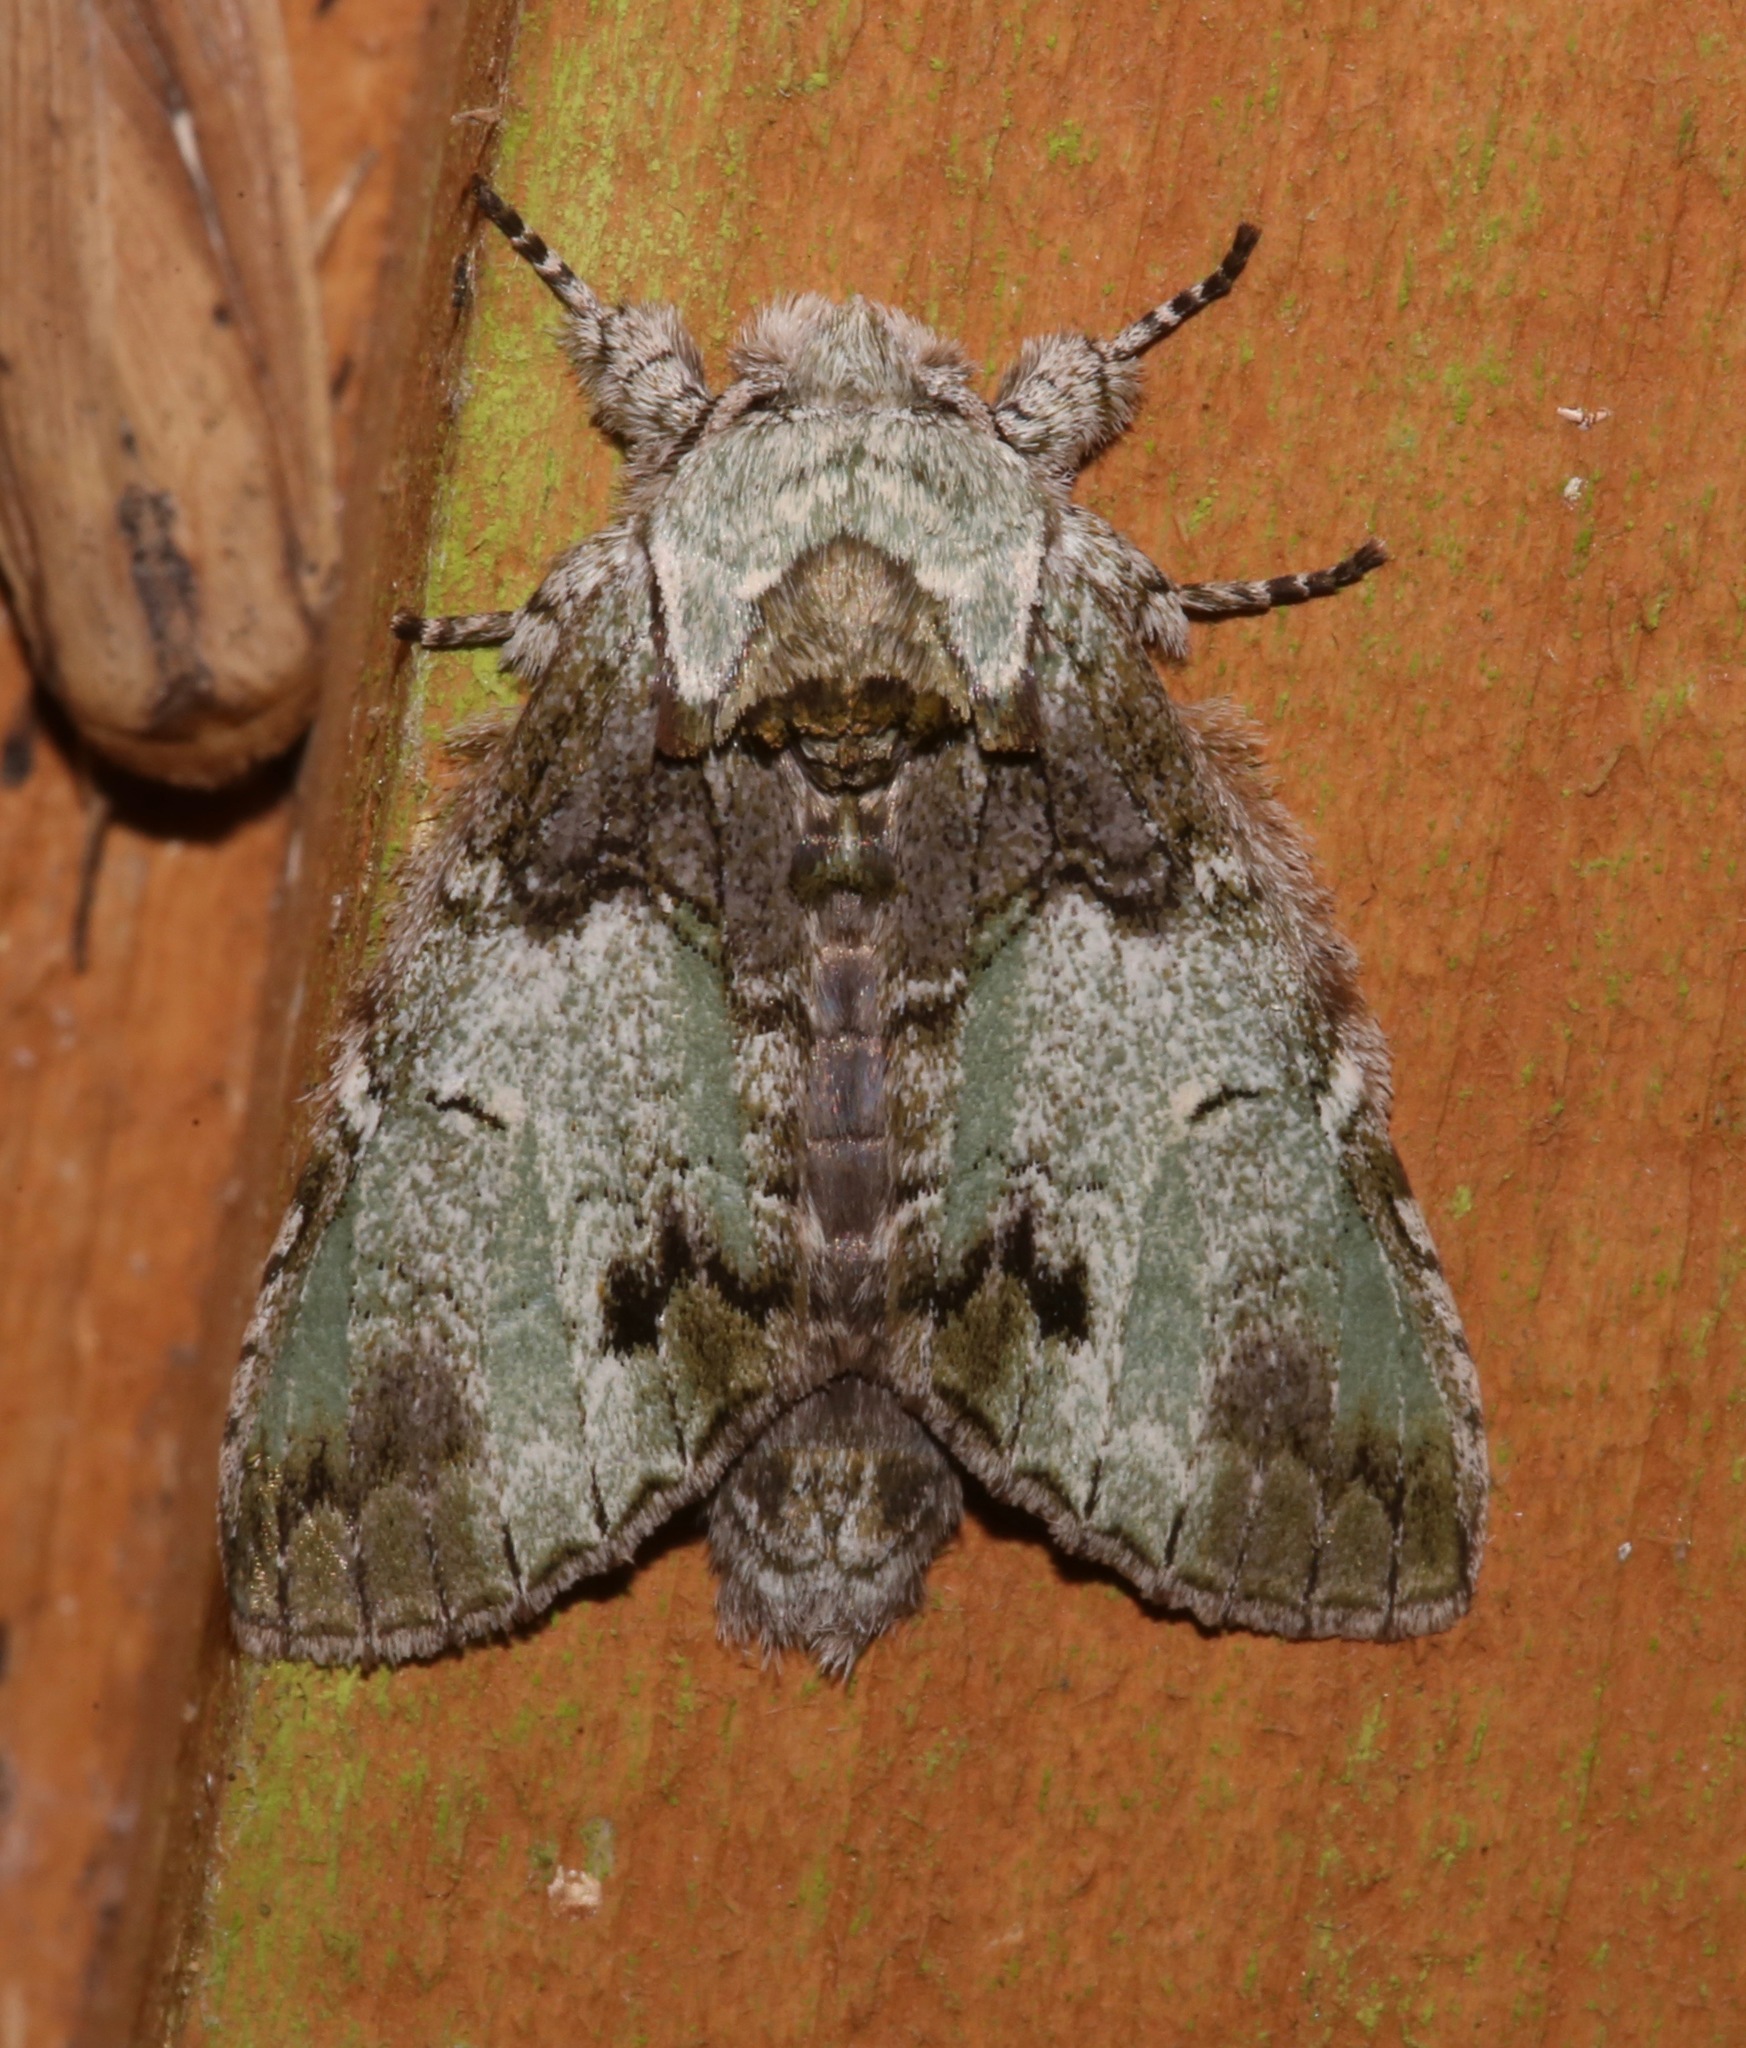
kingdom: Animalia
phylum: Arthropoda
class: Insecta
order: Lepidoptera
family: Notodontidae
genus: Macrurocampa
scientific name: Macrurocampa marthesia
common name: Mottled prominent
